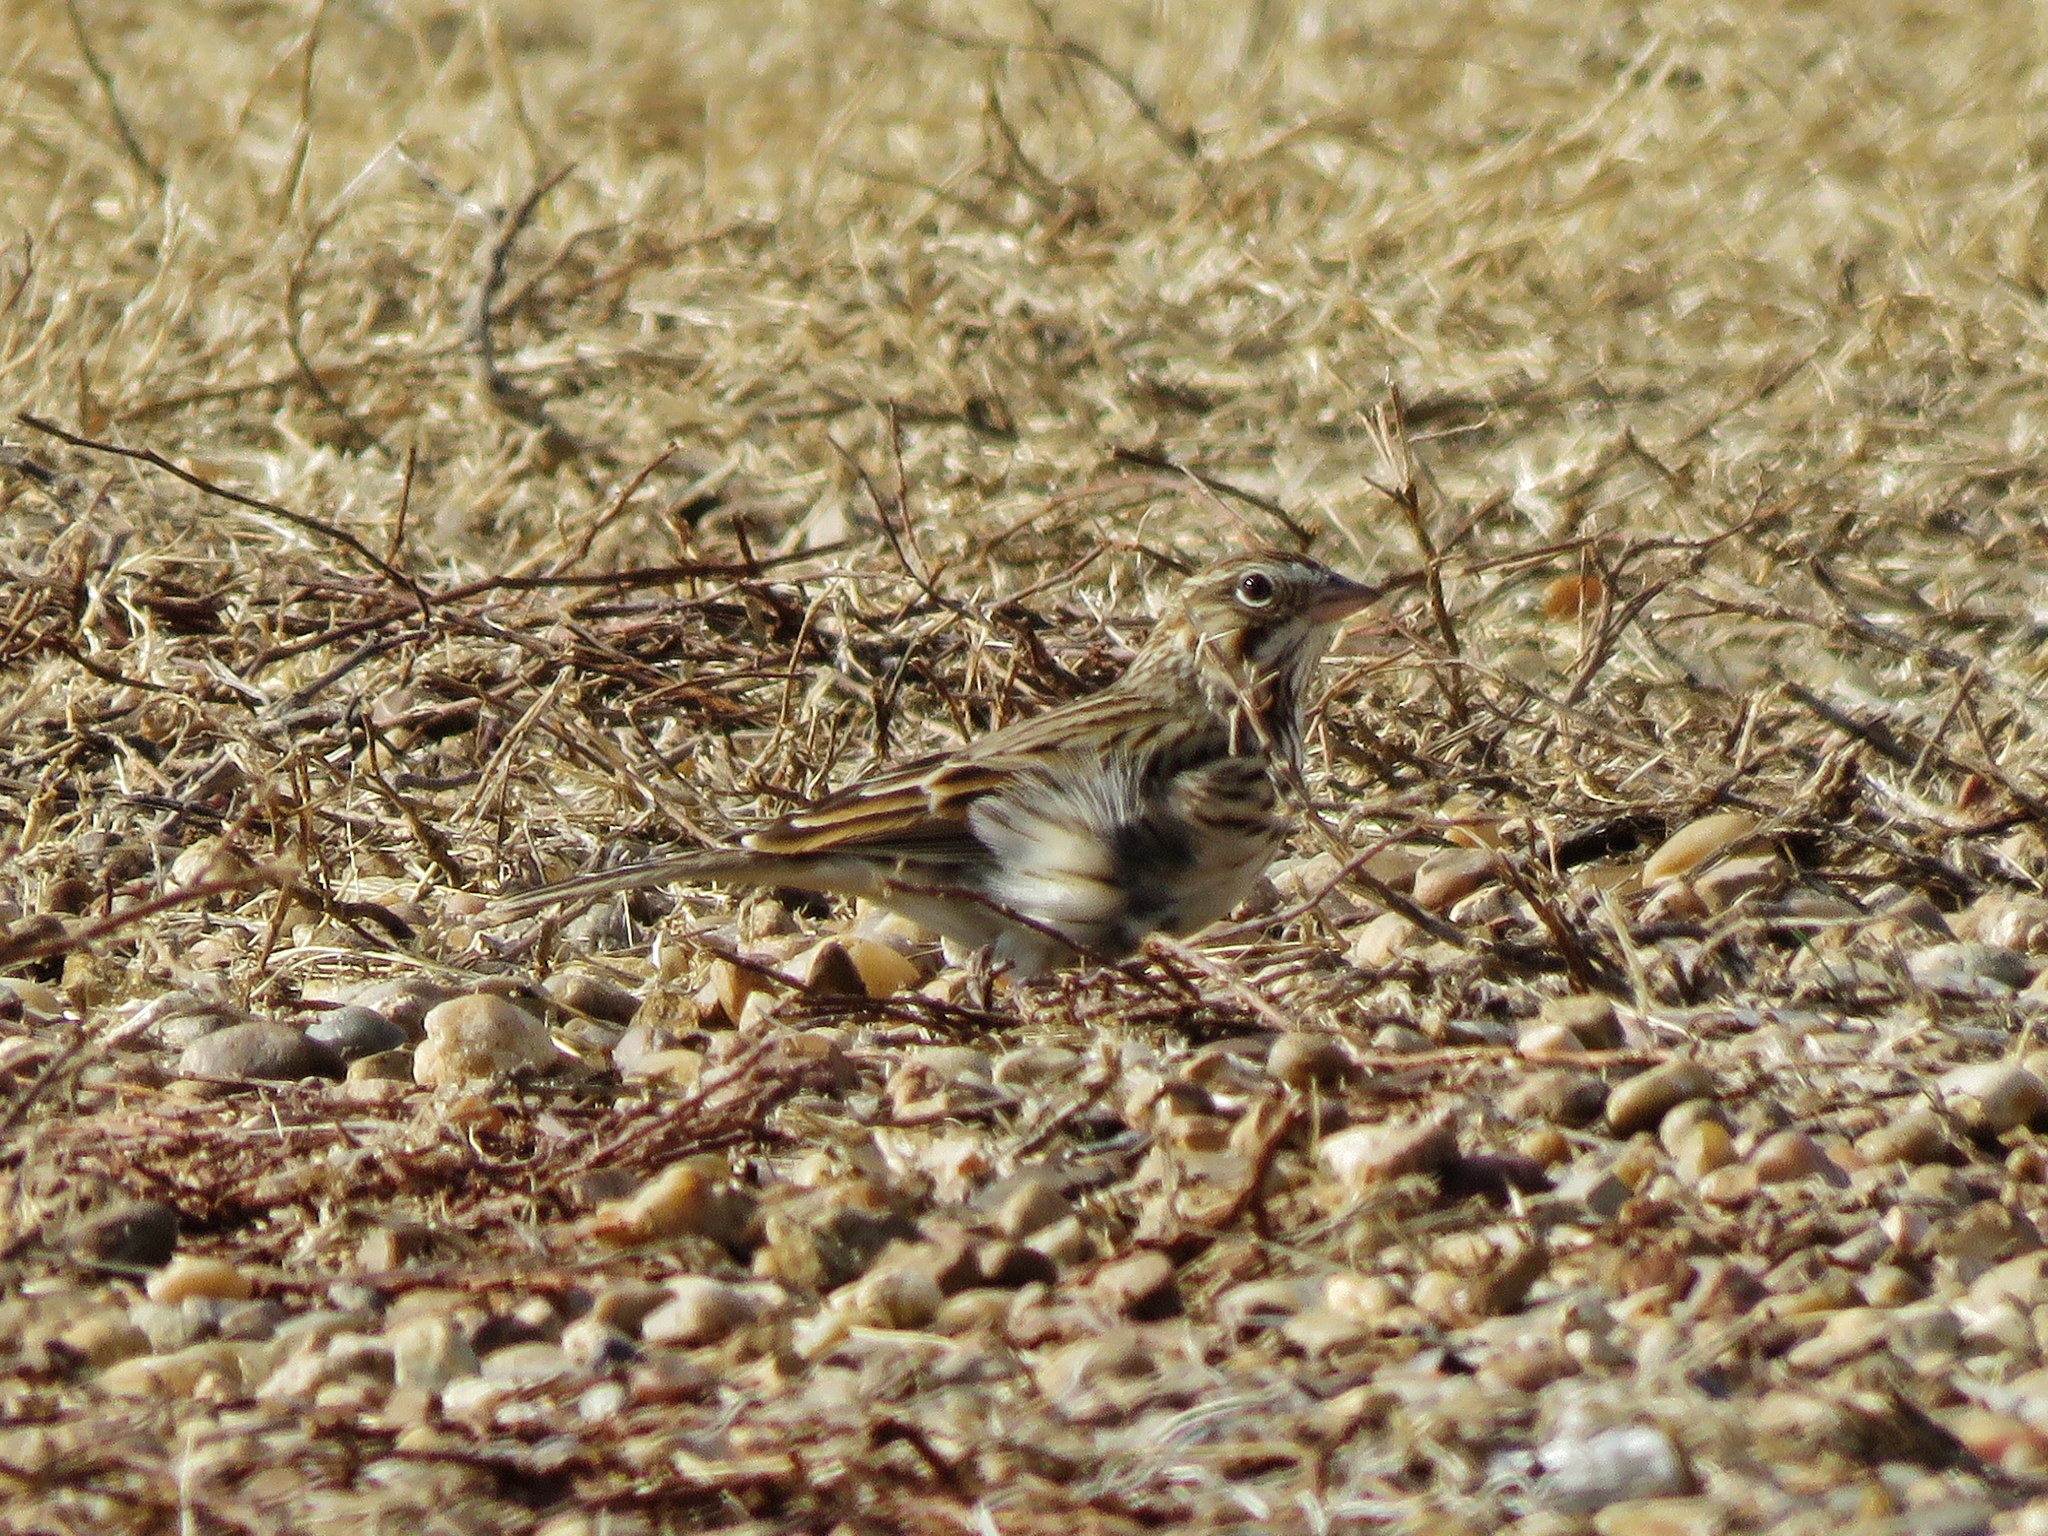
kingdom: Animalia
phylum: Chordata
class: Aves
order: Passeriformes
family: Passerellidae
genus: Pooecetes
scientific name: Pooecetes gramineus
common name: Vesper sparrow
